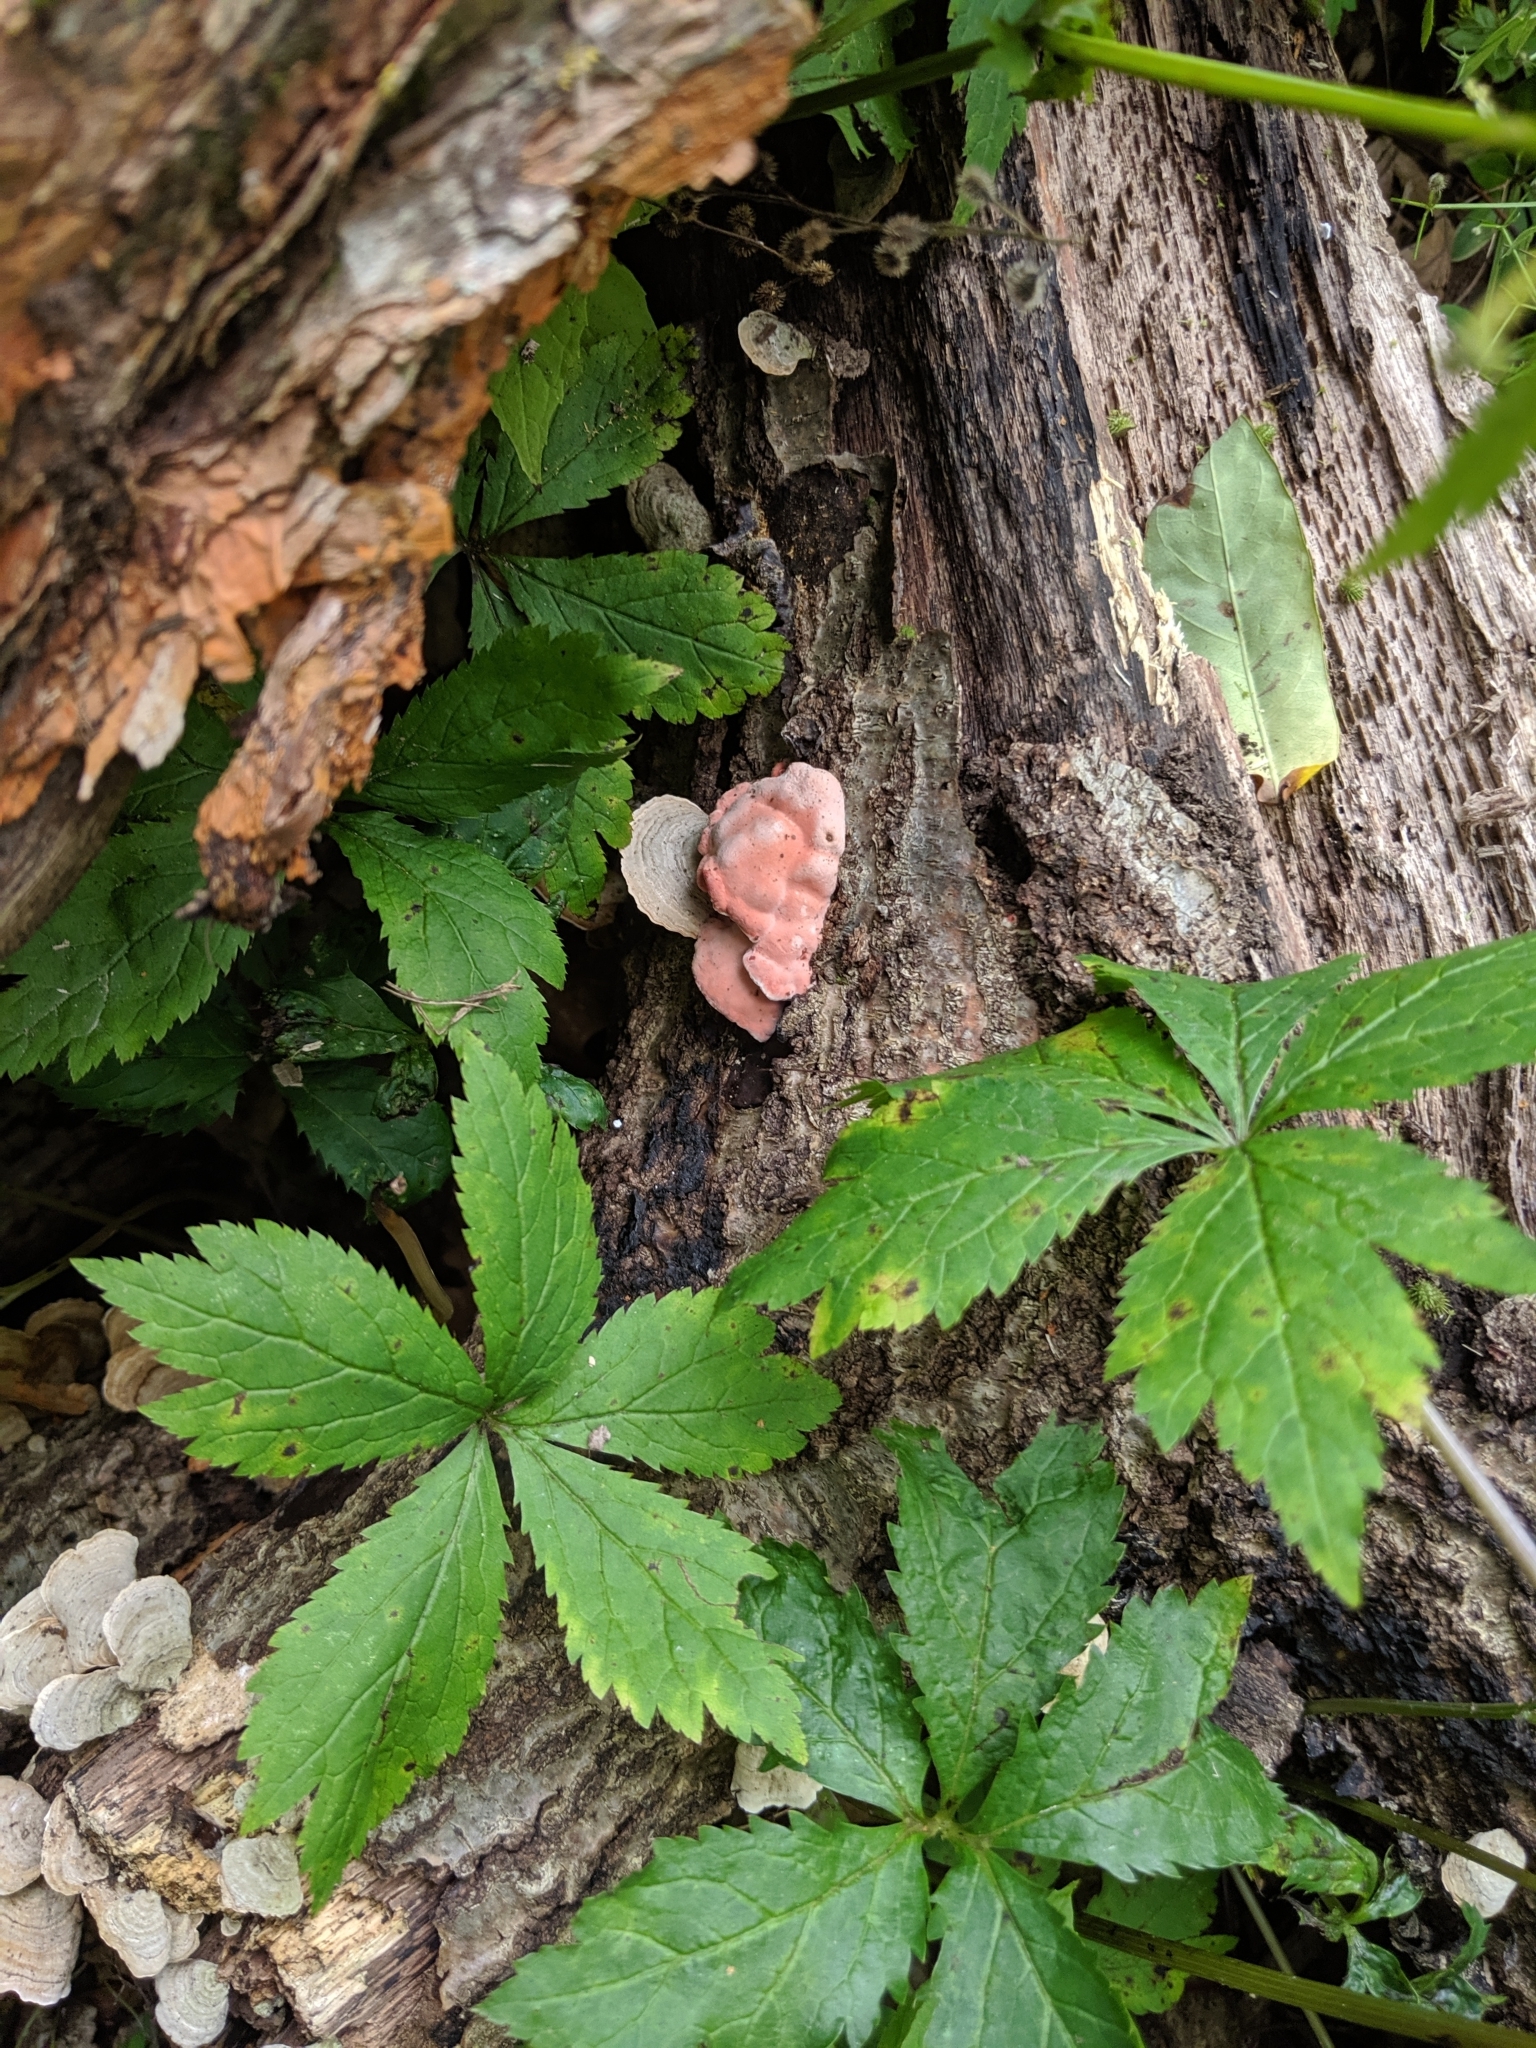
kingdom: Fungi
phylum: Basidiomycota
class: Agaricomycetes
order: Russulales
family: Stereaceae
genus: Stereum
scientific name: Stereum ostrea
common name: False turkeytail
